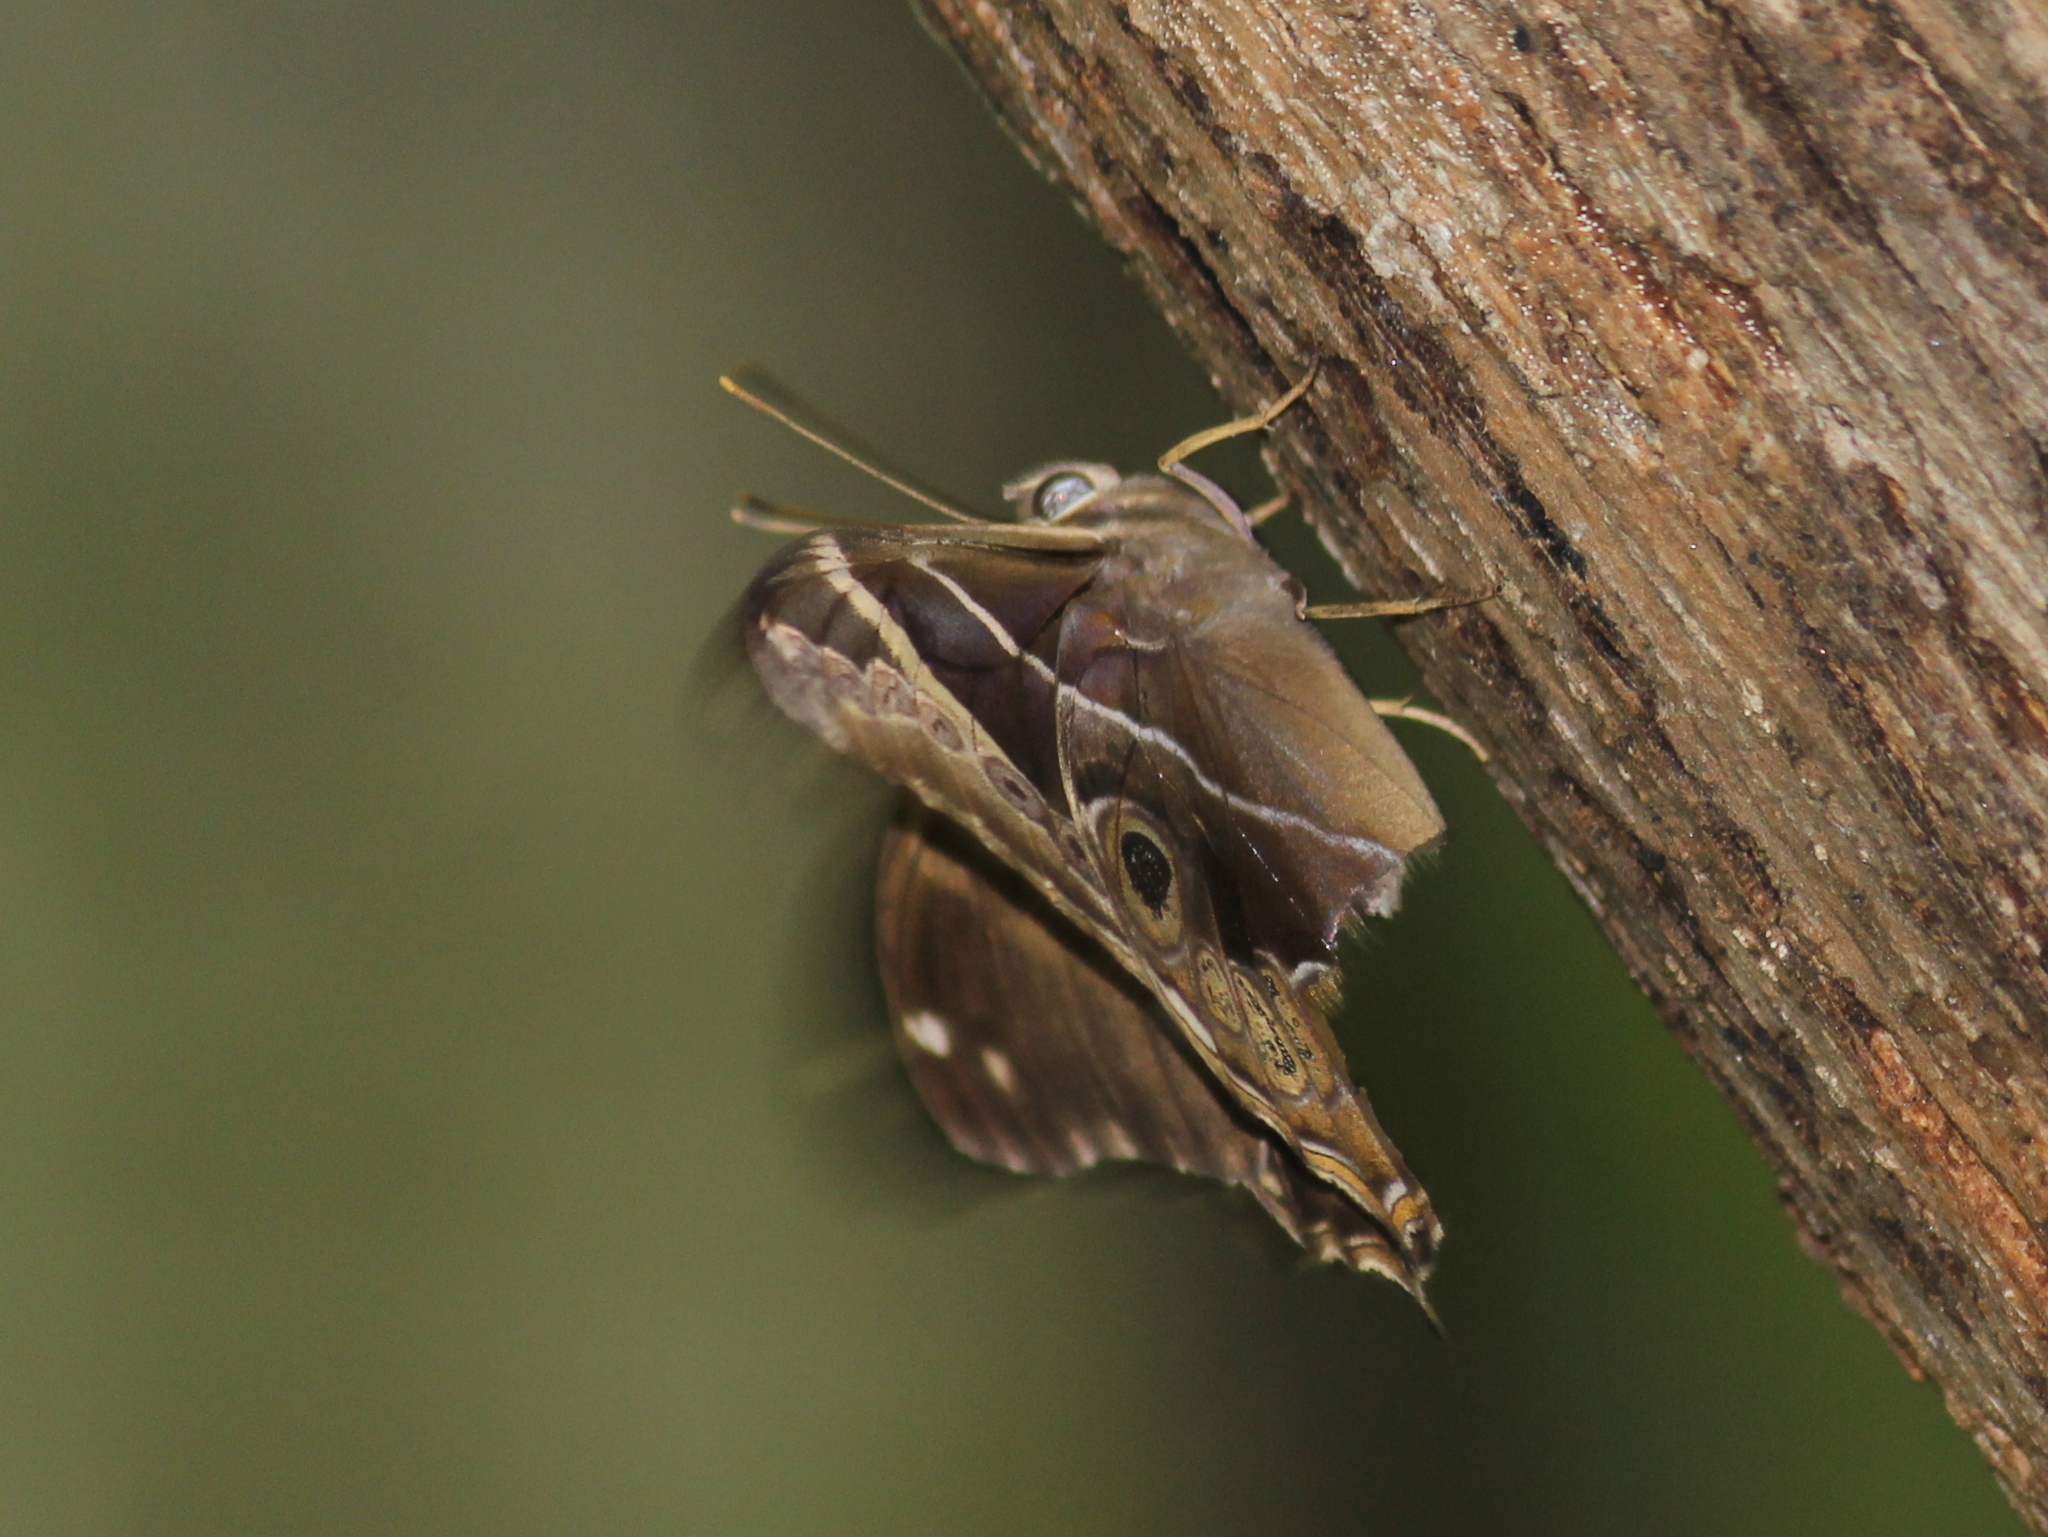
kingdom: Animalia
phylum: Arthropoda
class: Insecta
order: Lepidoptera
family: Nymphalidae
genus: Lethe
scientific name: Lethe europa
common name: Bamboo treebrown
